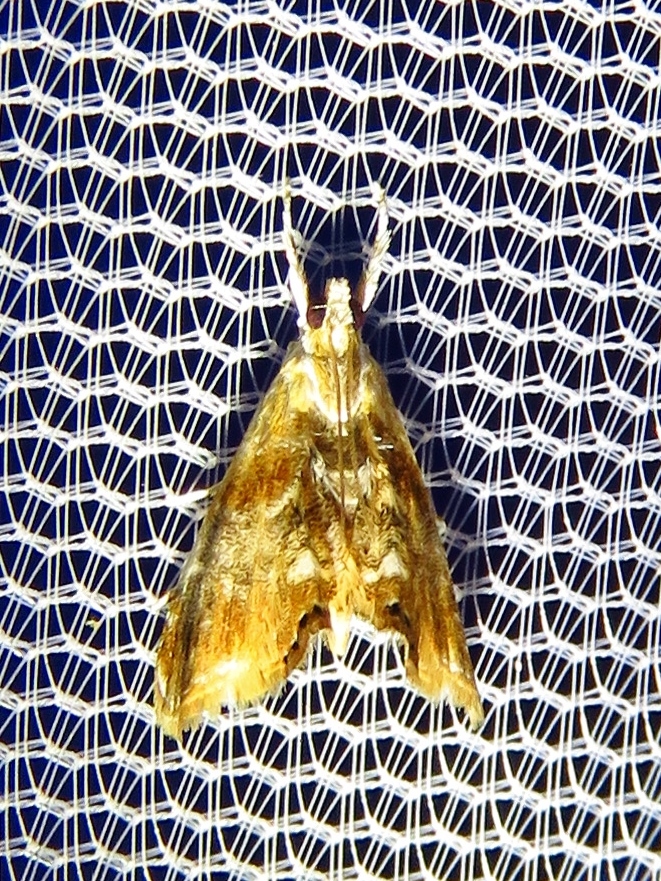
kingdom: Animalia
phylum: Arthropoda
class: Insecta
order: Lepidoptera
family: Crambidae
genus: Dicymolomia
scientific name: Dicymolomia julianalis
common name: Julia's dicymolomia moth
